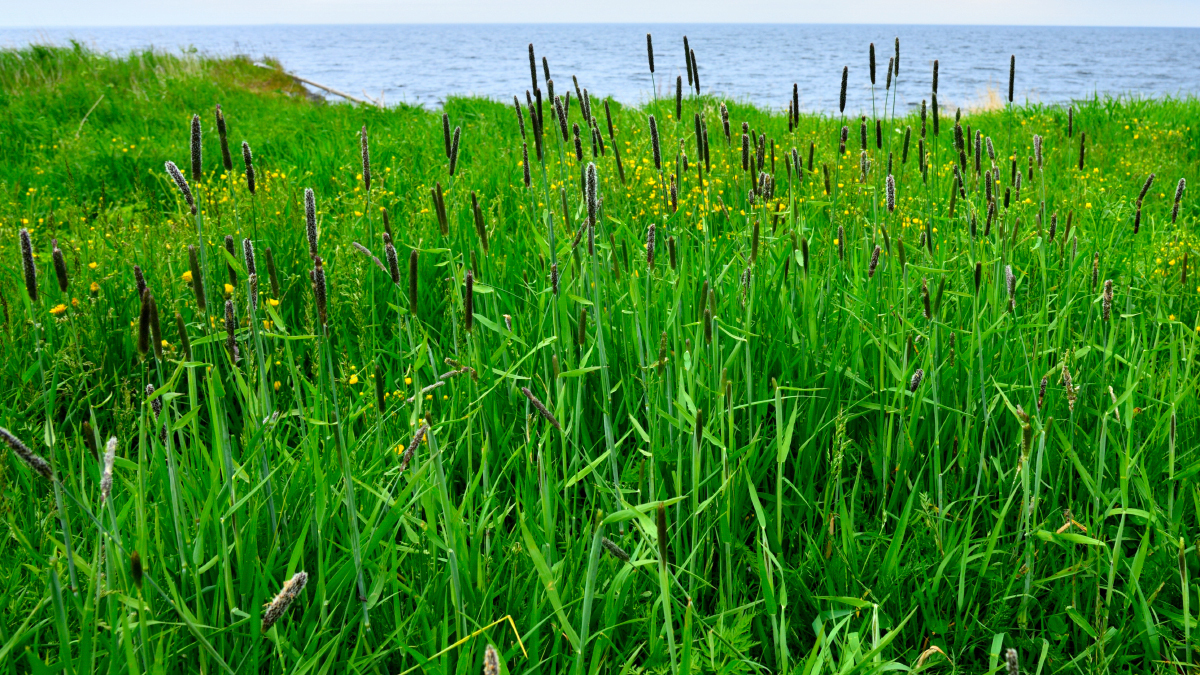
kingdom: Plantae
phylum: Tracheophyta
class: Liliopsida
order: Poales
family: Poaceae
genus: Alopecurus
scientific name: Alopecurus arundinaceus
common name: Creeping meadow foxtail
